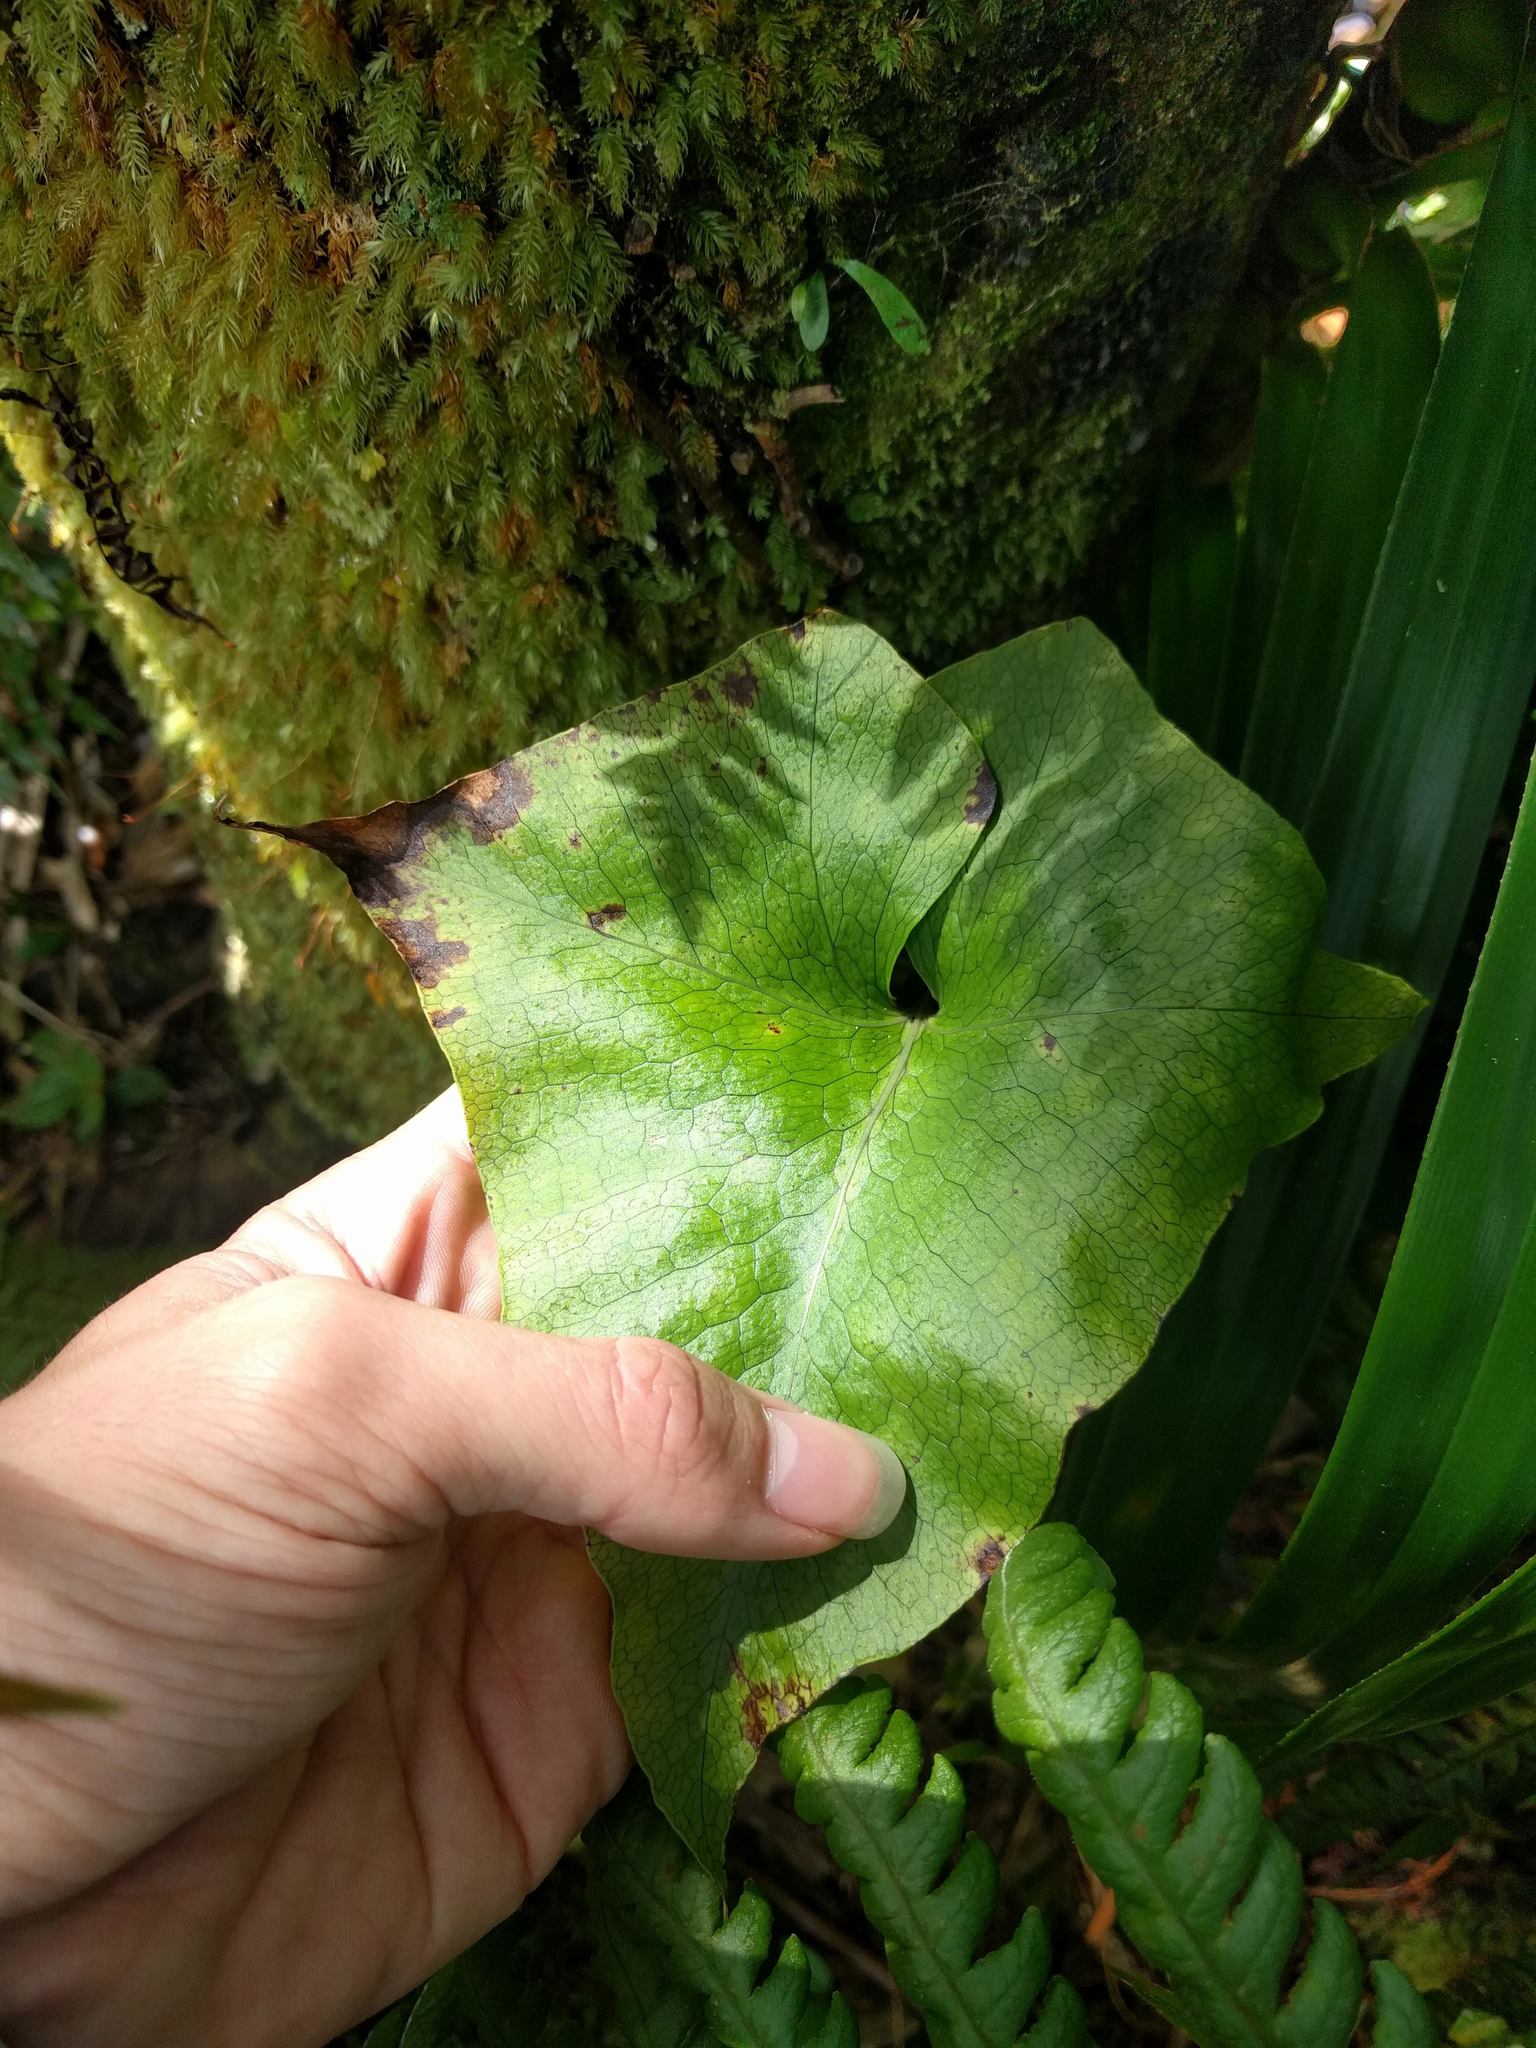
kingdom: Plantae
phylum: Tracheophyta
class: Polypodiopsida
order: Polypodiales
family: Polypodiaceae
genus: Microsorum
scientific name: Microsorum spectrum
